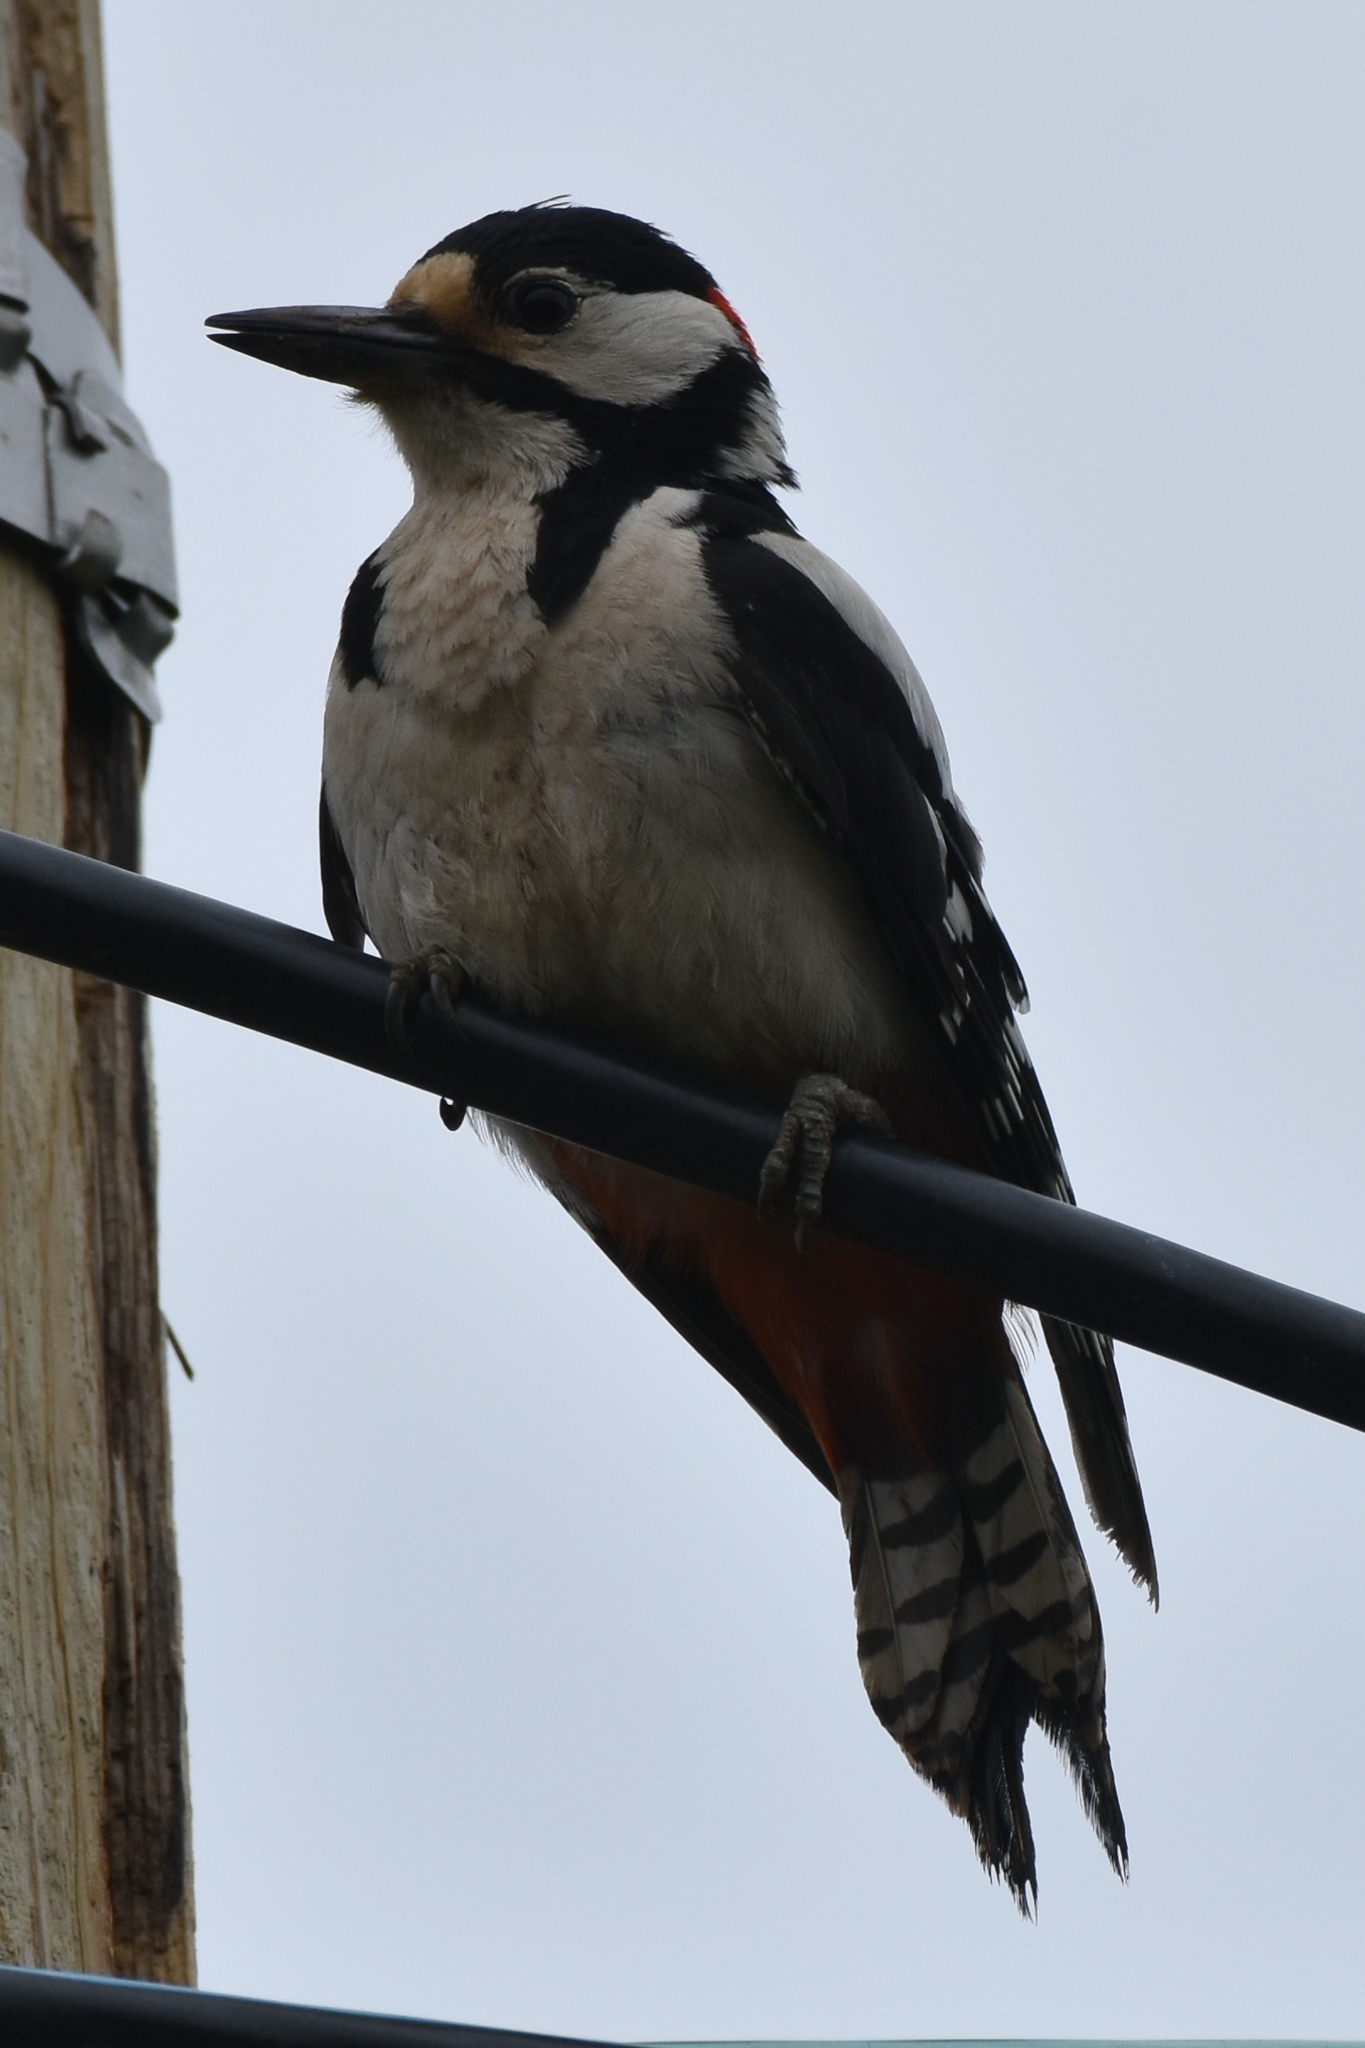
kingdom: Animalia
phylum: Chordata
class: Aves
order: Piciformes
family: Picidae
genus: Dendrocopos
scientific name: Dendrocopos major
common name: Great spotted woodpecker
